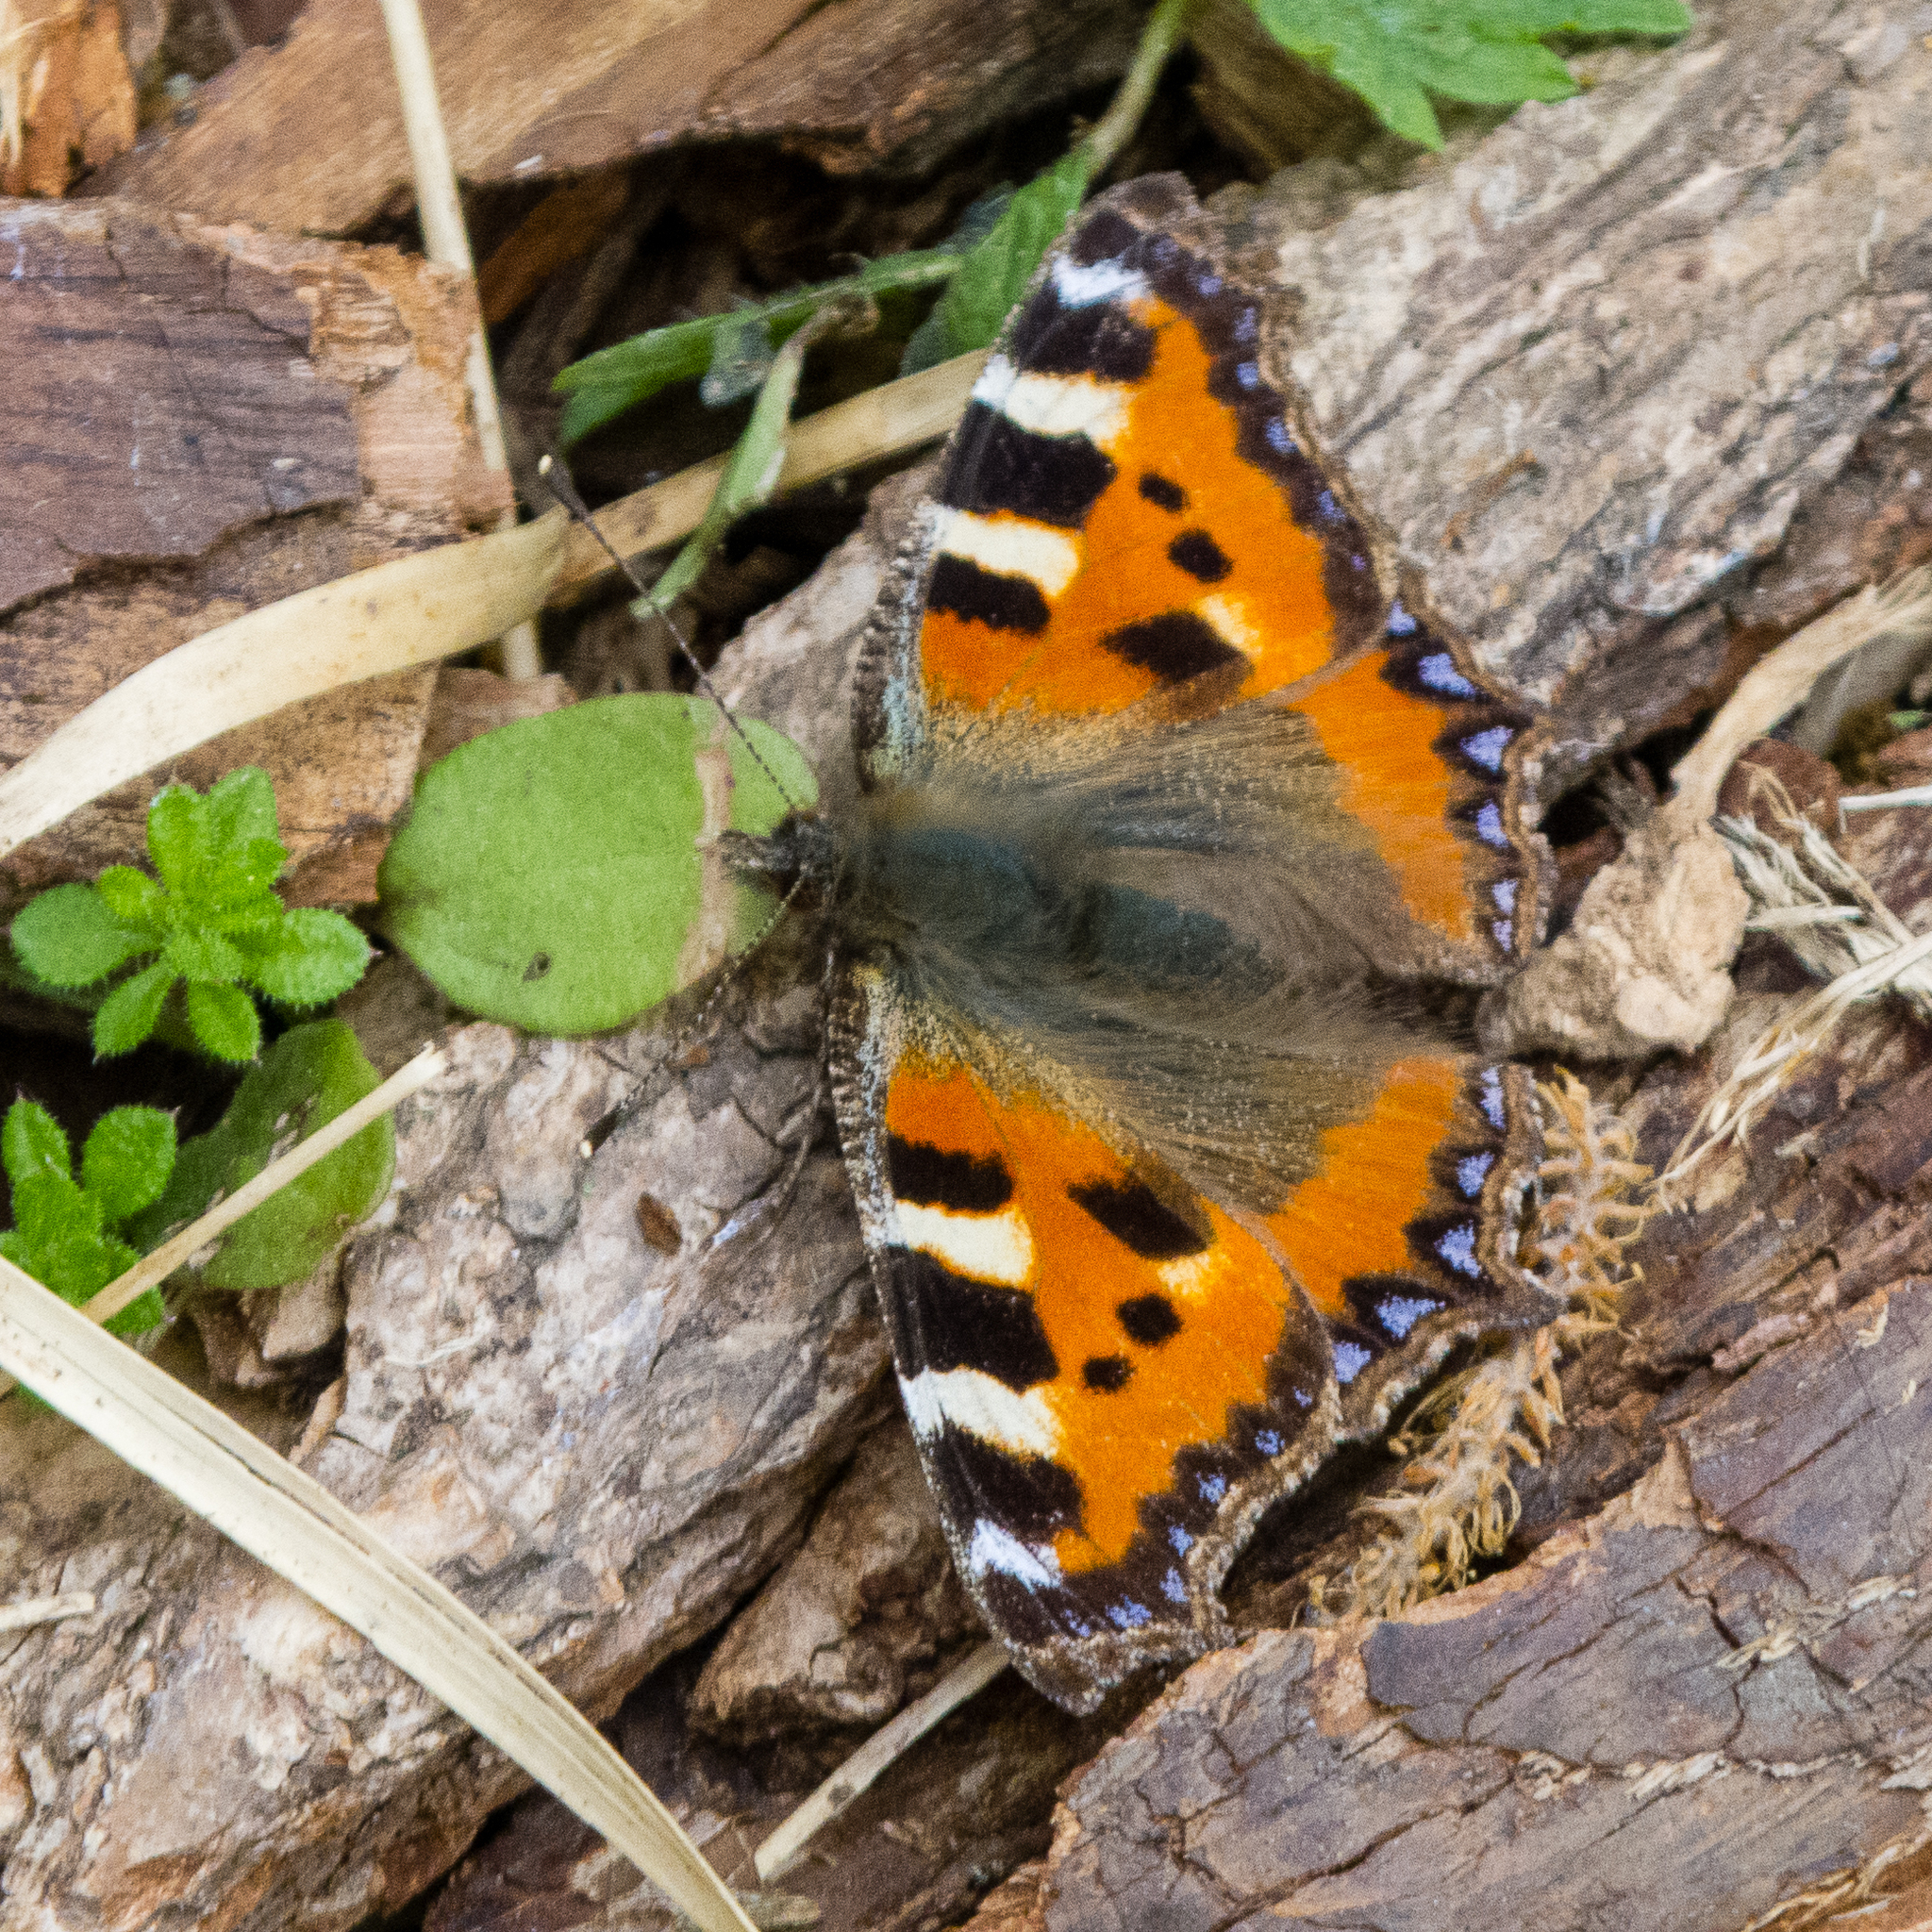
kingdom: Animalia
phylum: Arthropoda
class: Insecta
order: Lepidoptera
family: Nymphalidae
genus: Aglais
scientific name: Aglais urticae
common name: Small tortoiseshell
